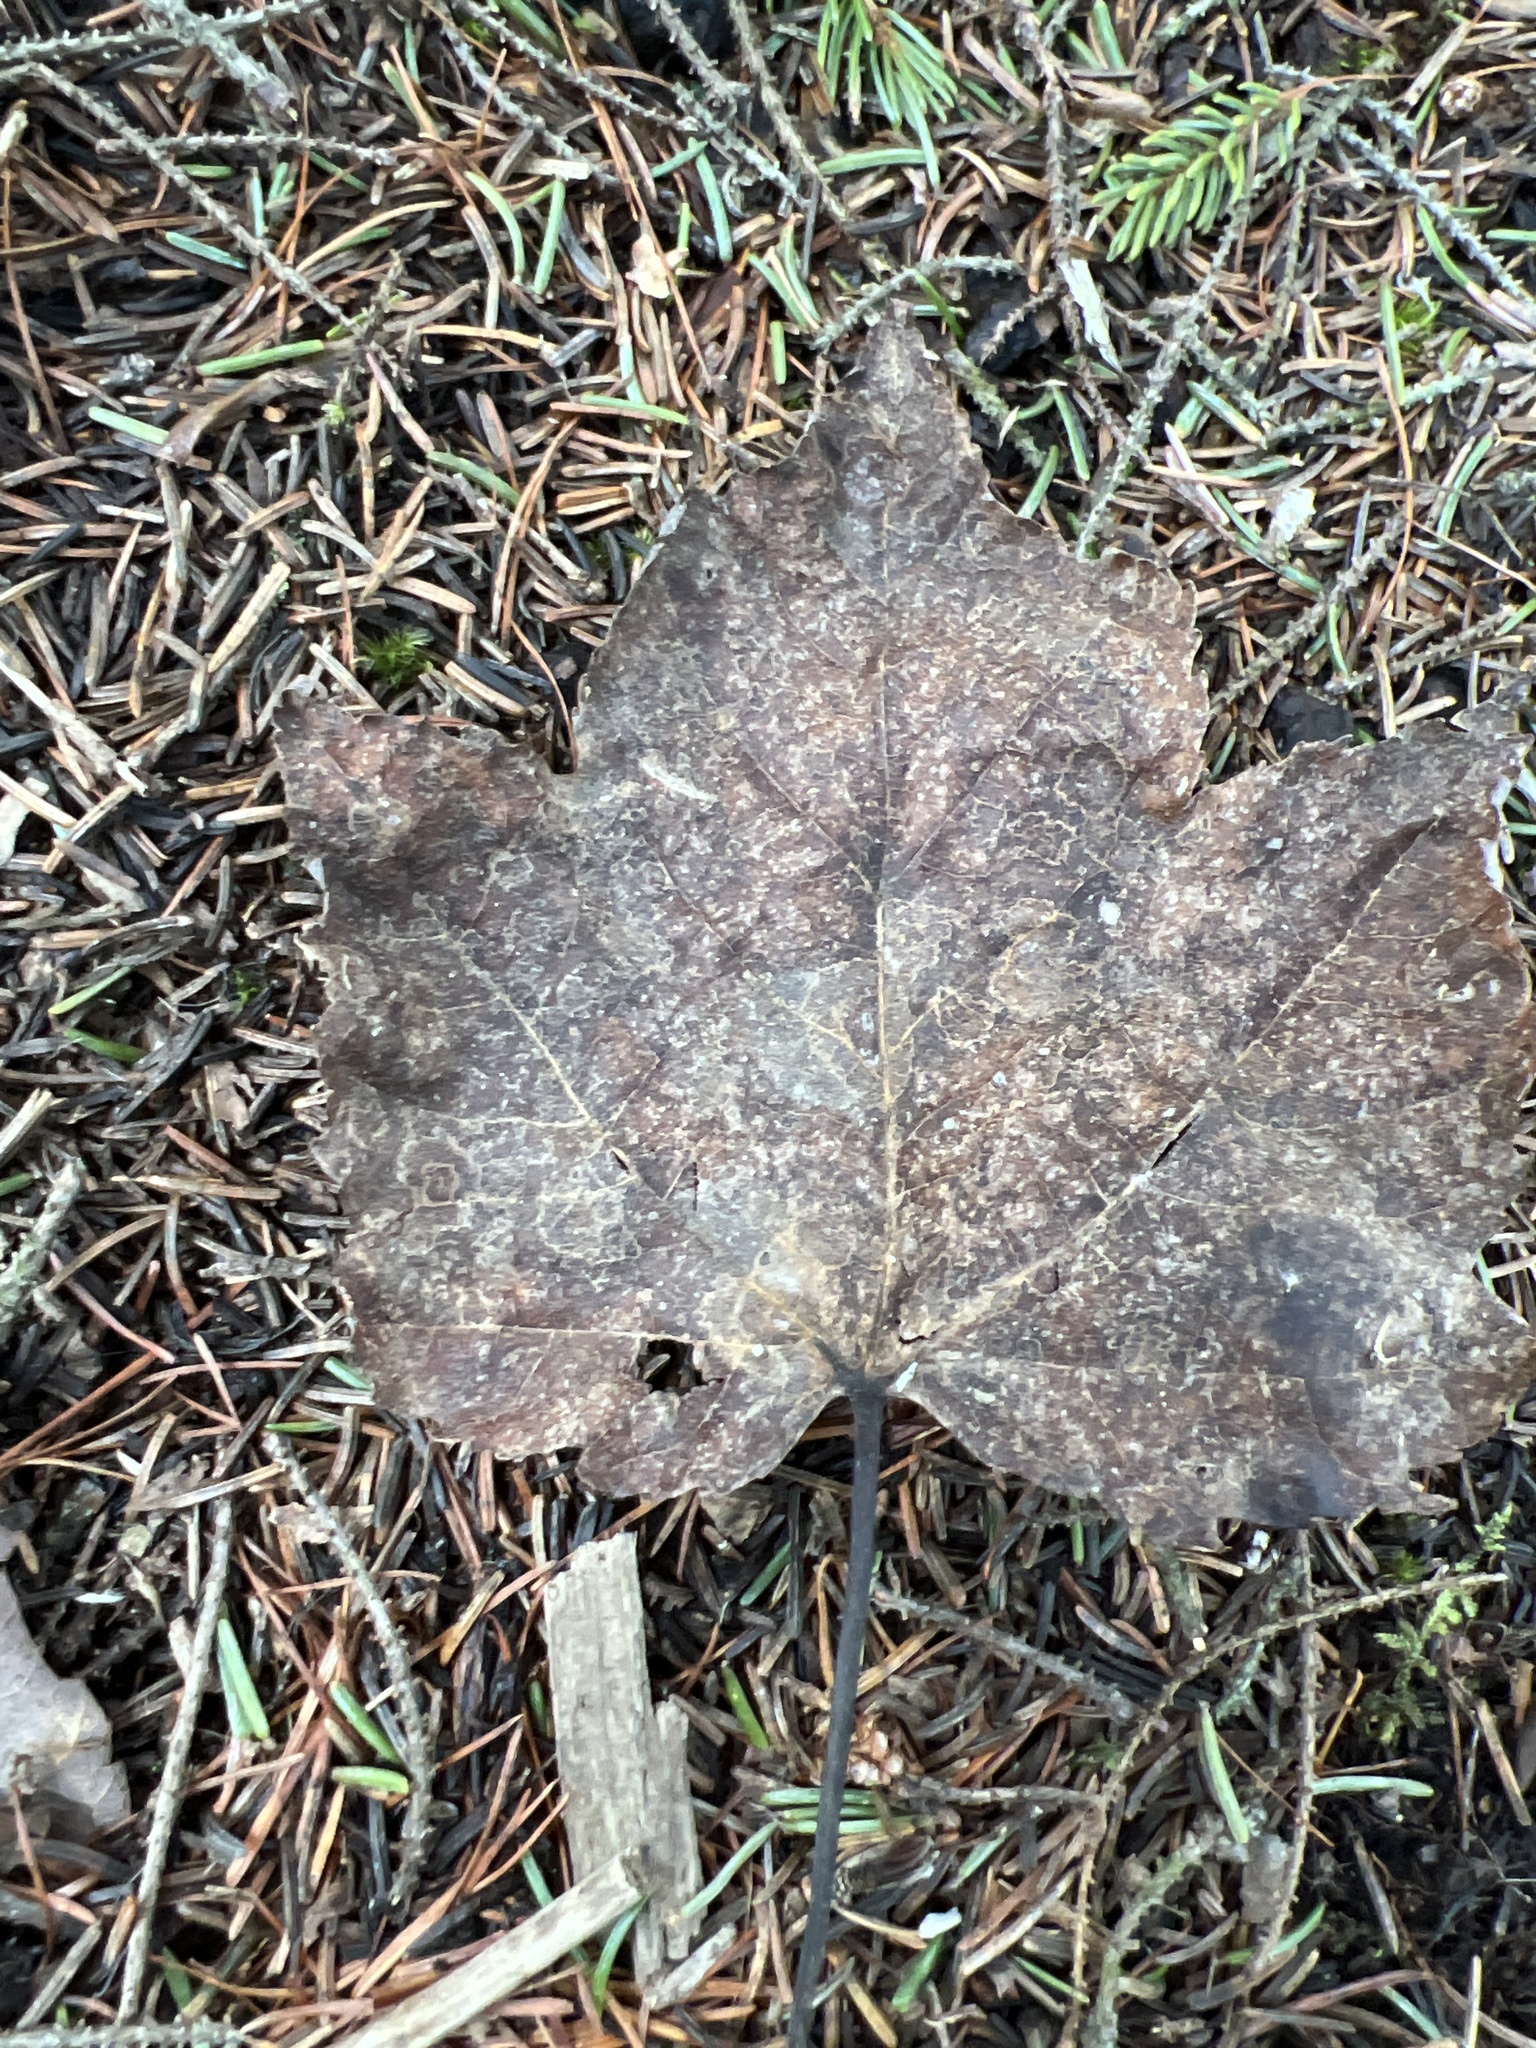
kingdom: Plantae
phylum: Tracheophyta
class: Magnoliopsida
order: Sapindales
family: Sapindaceae
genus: Acer
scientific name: Acer rubrum
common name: Red maple
